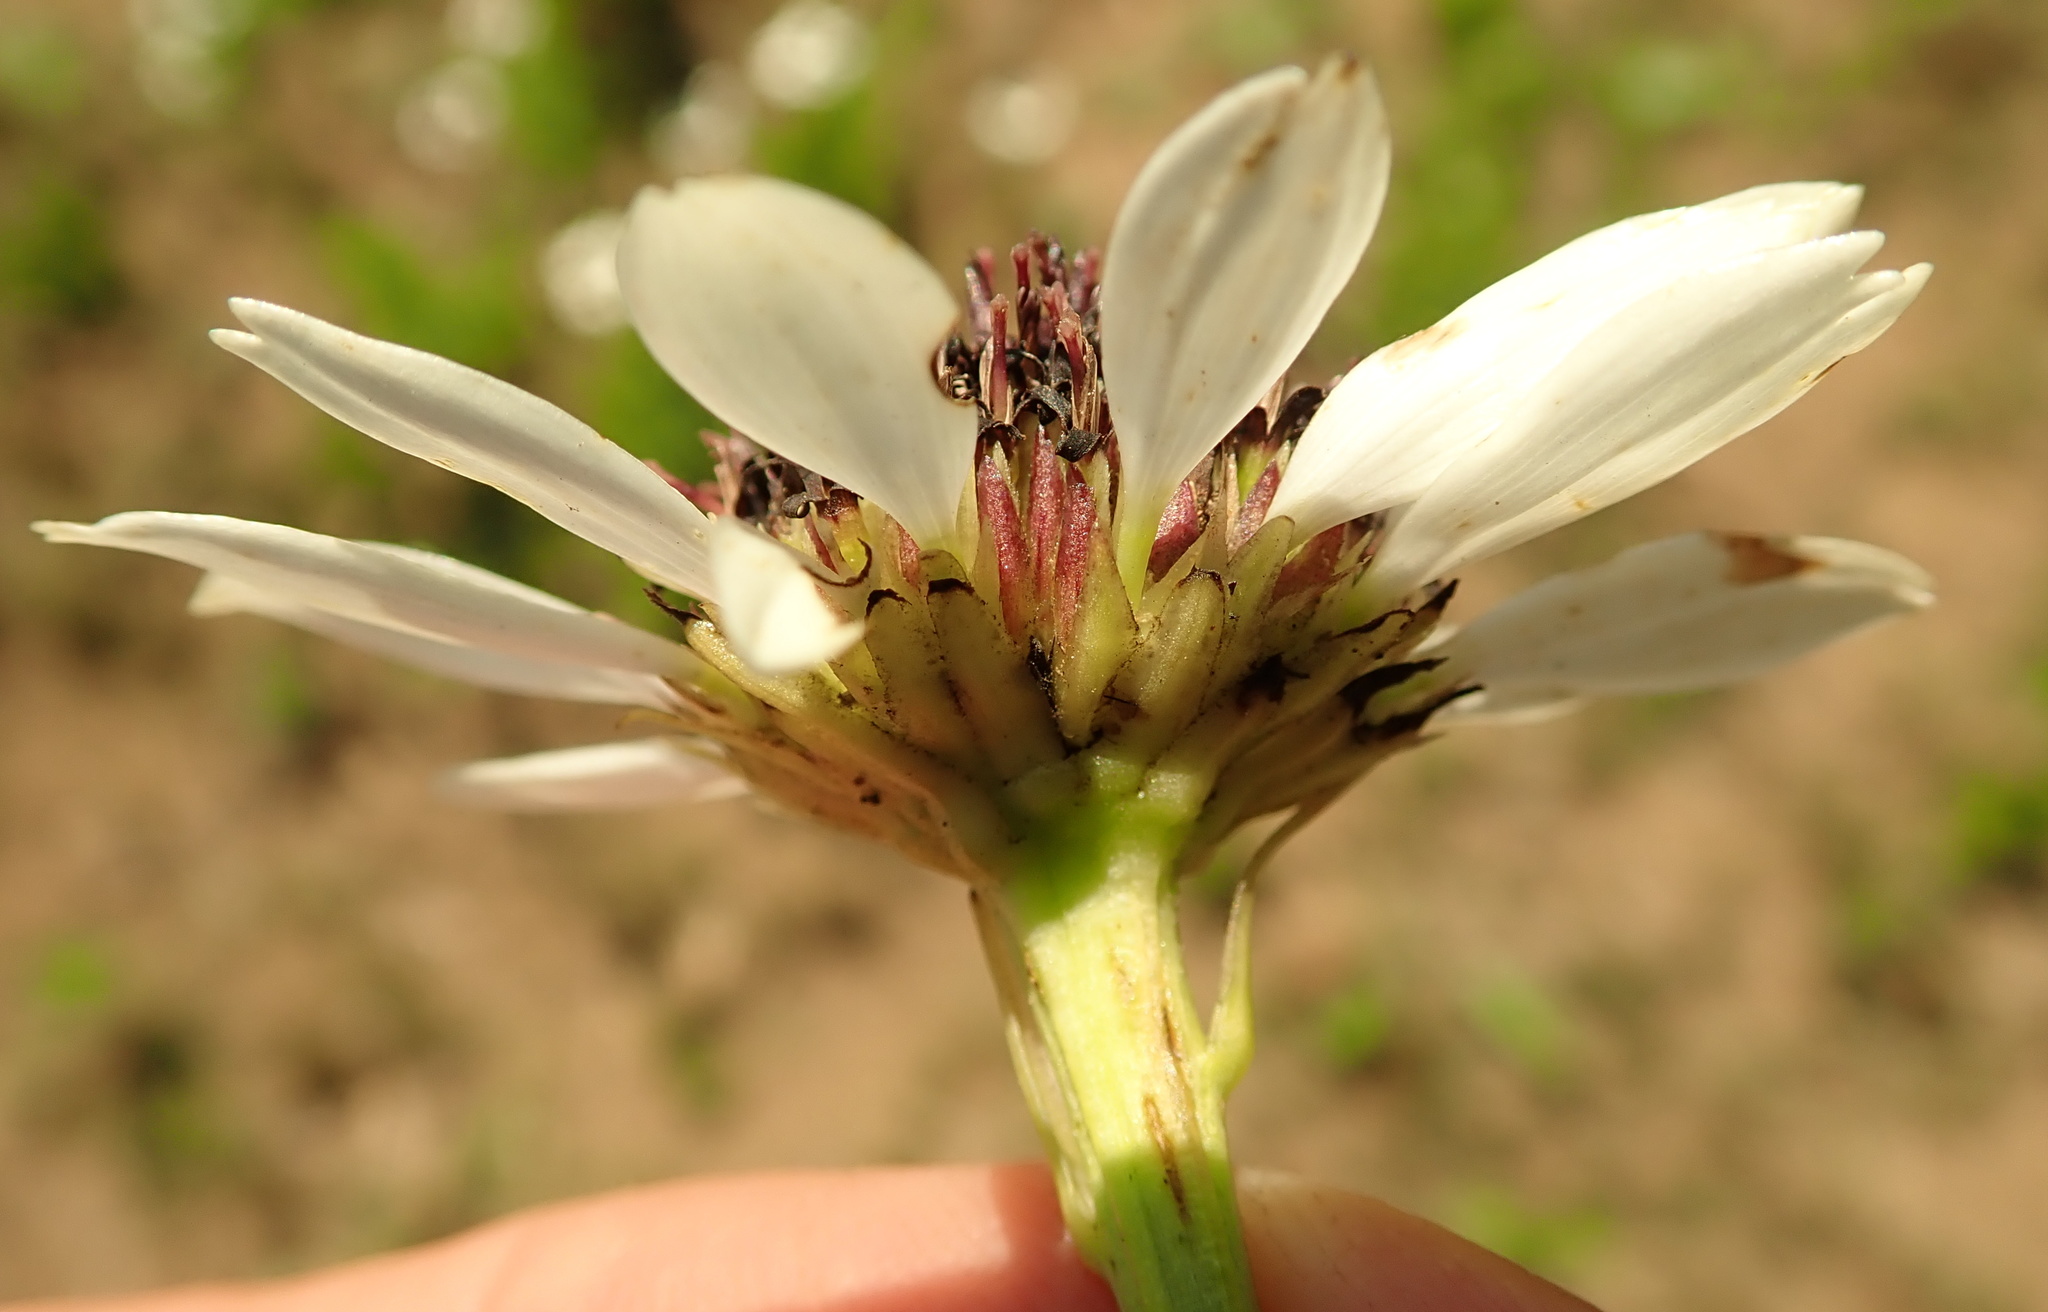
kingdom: Plantae
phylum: Tracheophyta
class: Magnoliopsida
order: Asterales
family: Asteraceae
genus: Callilepis
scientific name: Callilepis laureola
